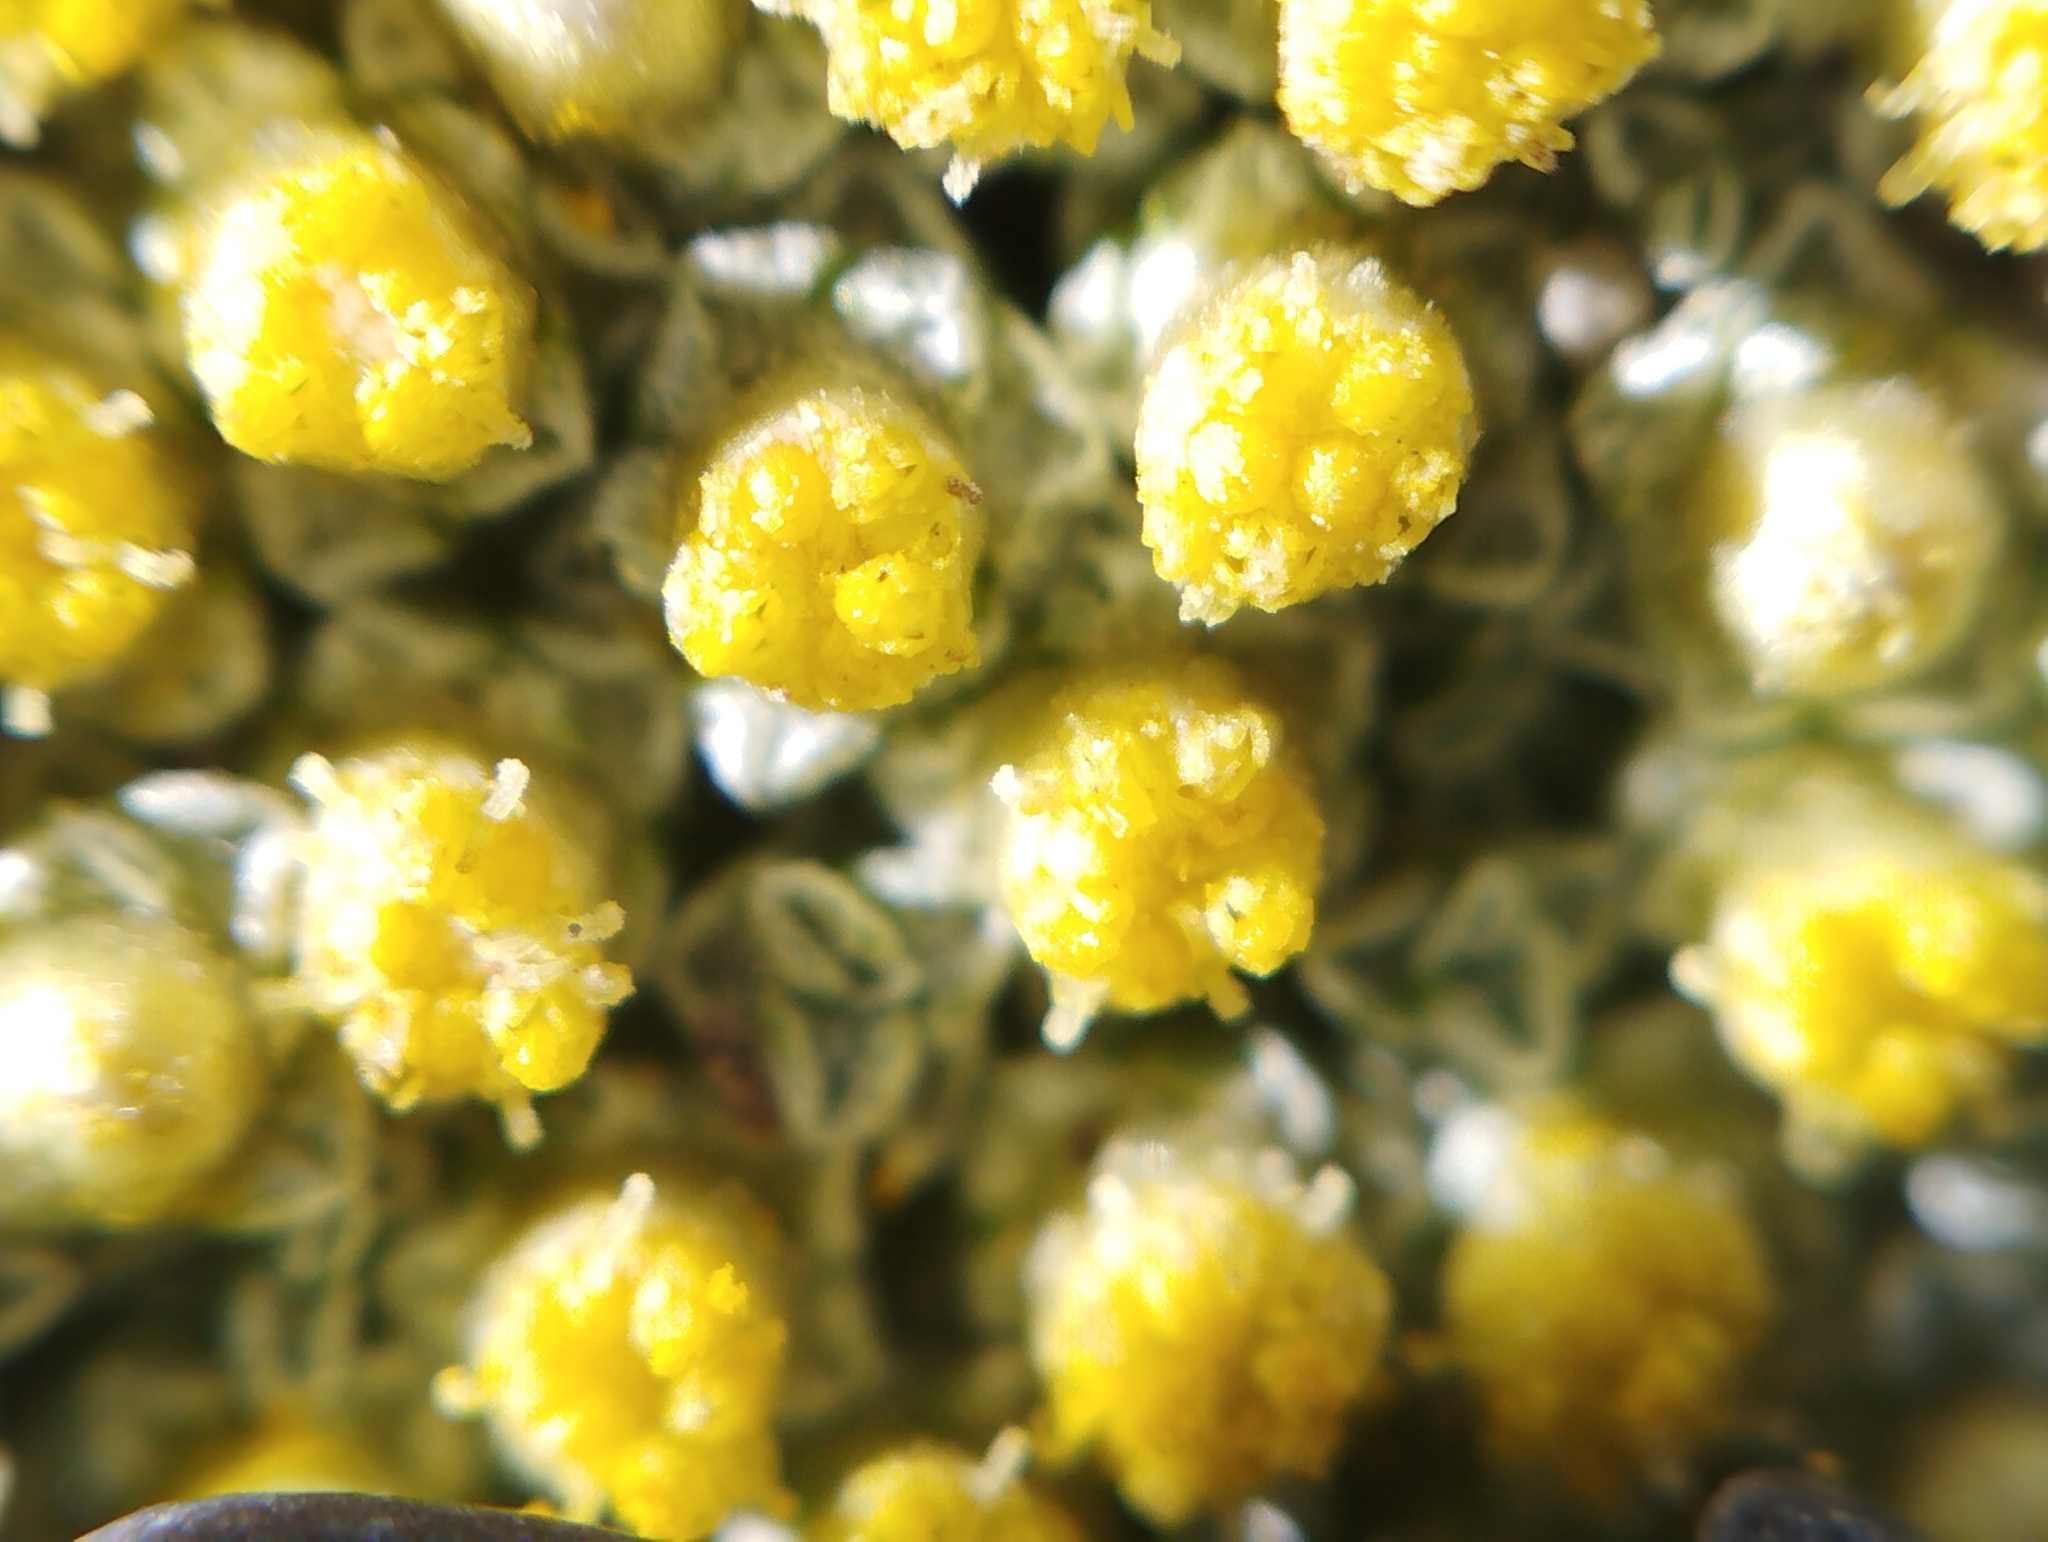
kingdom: Plantae
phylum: Tracheophyta
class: Magnoliopsida
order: Asterales
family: Asteraceae
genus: Raoulia
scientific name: Raoulia australis
